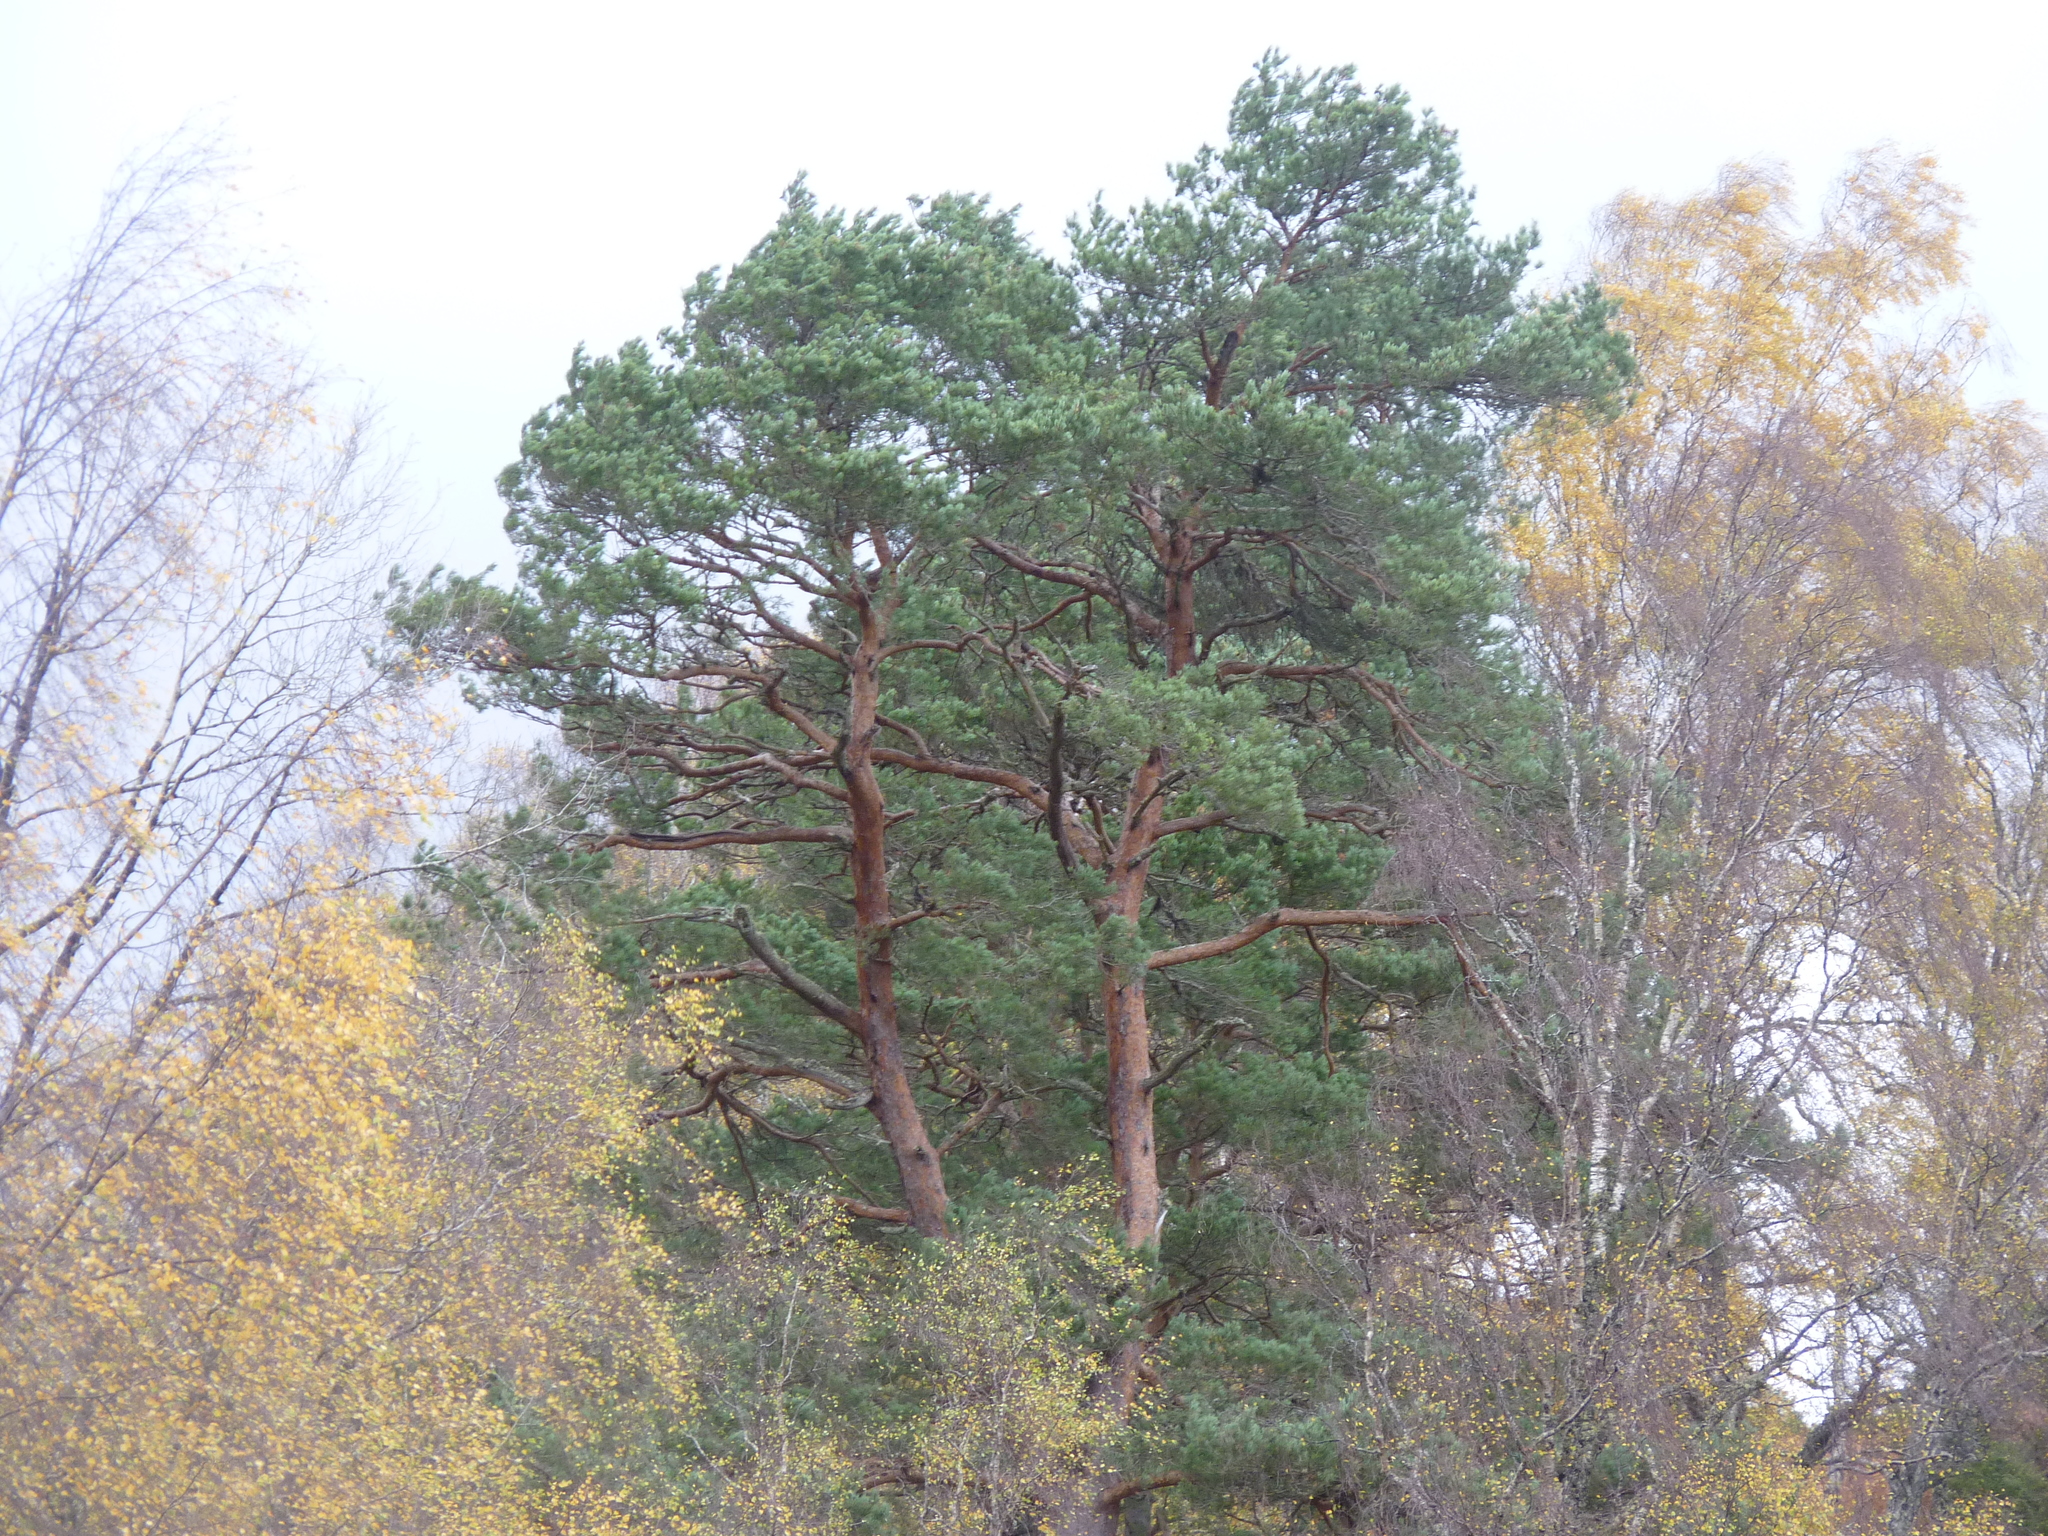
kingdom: Plantae
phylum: Tracheophyta
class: Pinopsida
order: Pinales
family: Pinaceae
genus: Pinus
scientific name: Pinus sylvestris
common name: Scots pine
